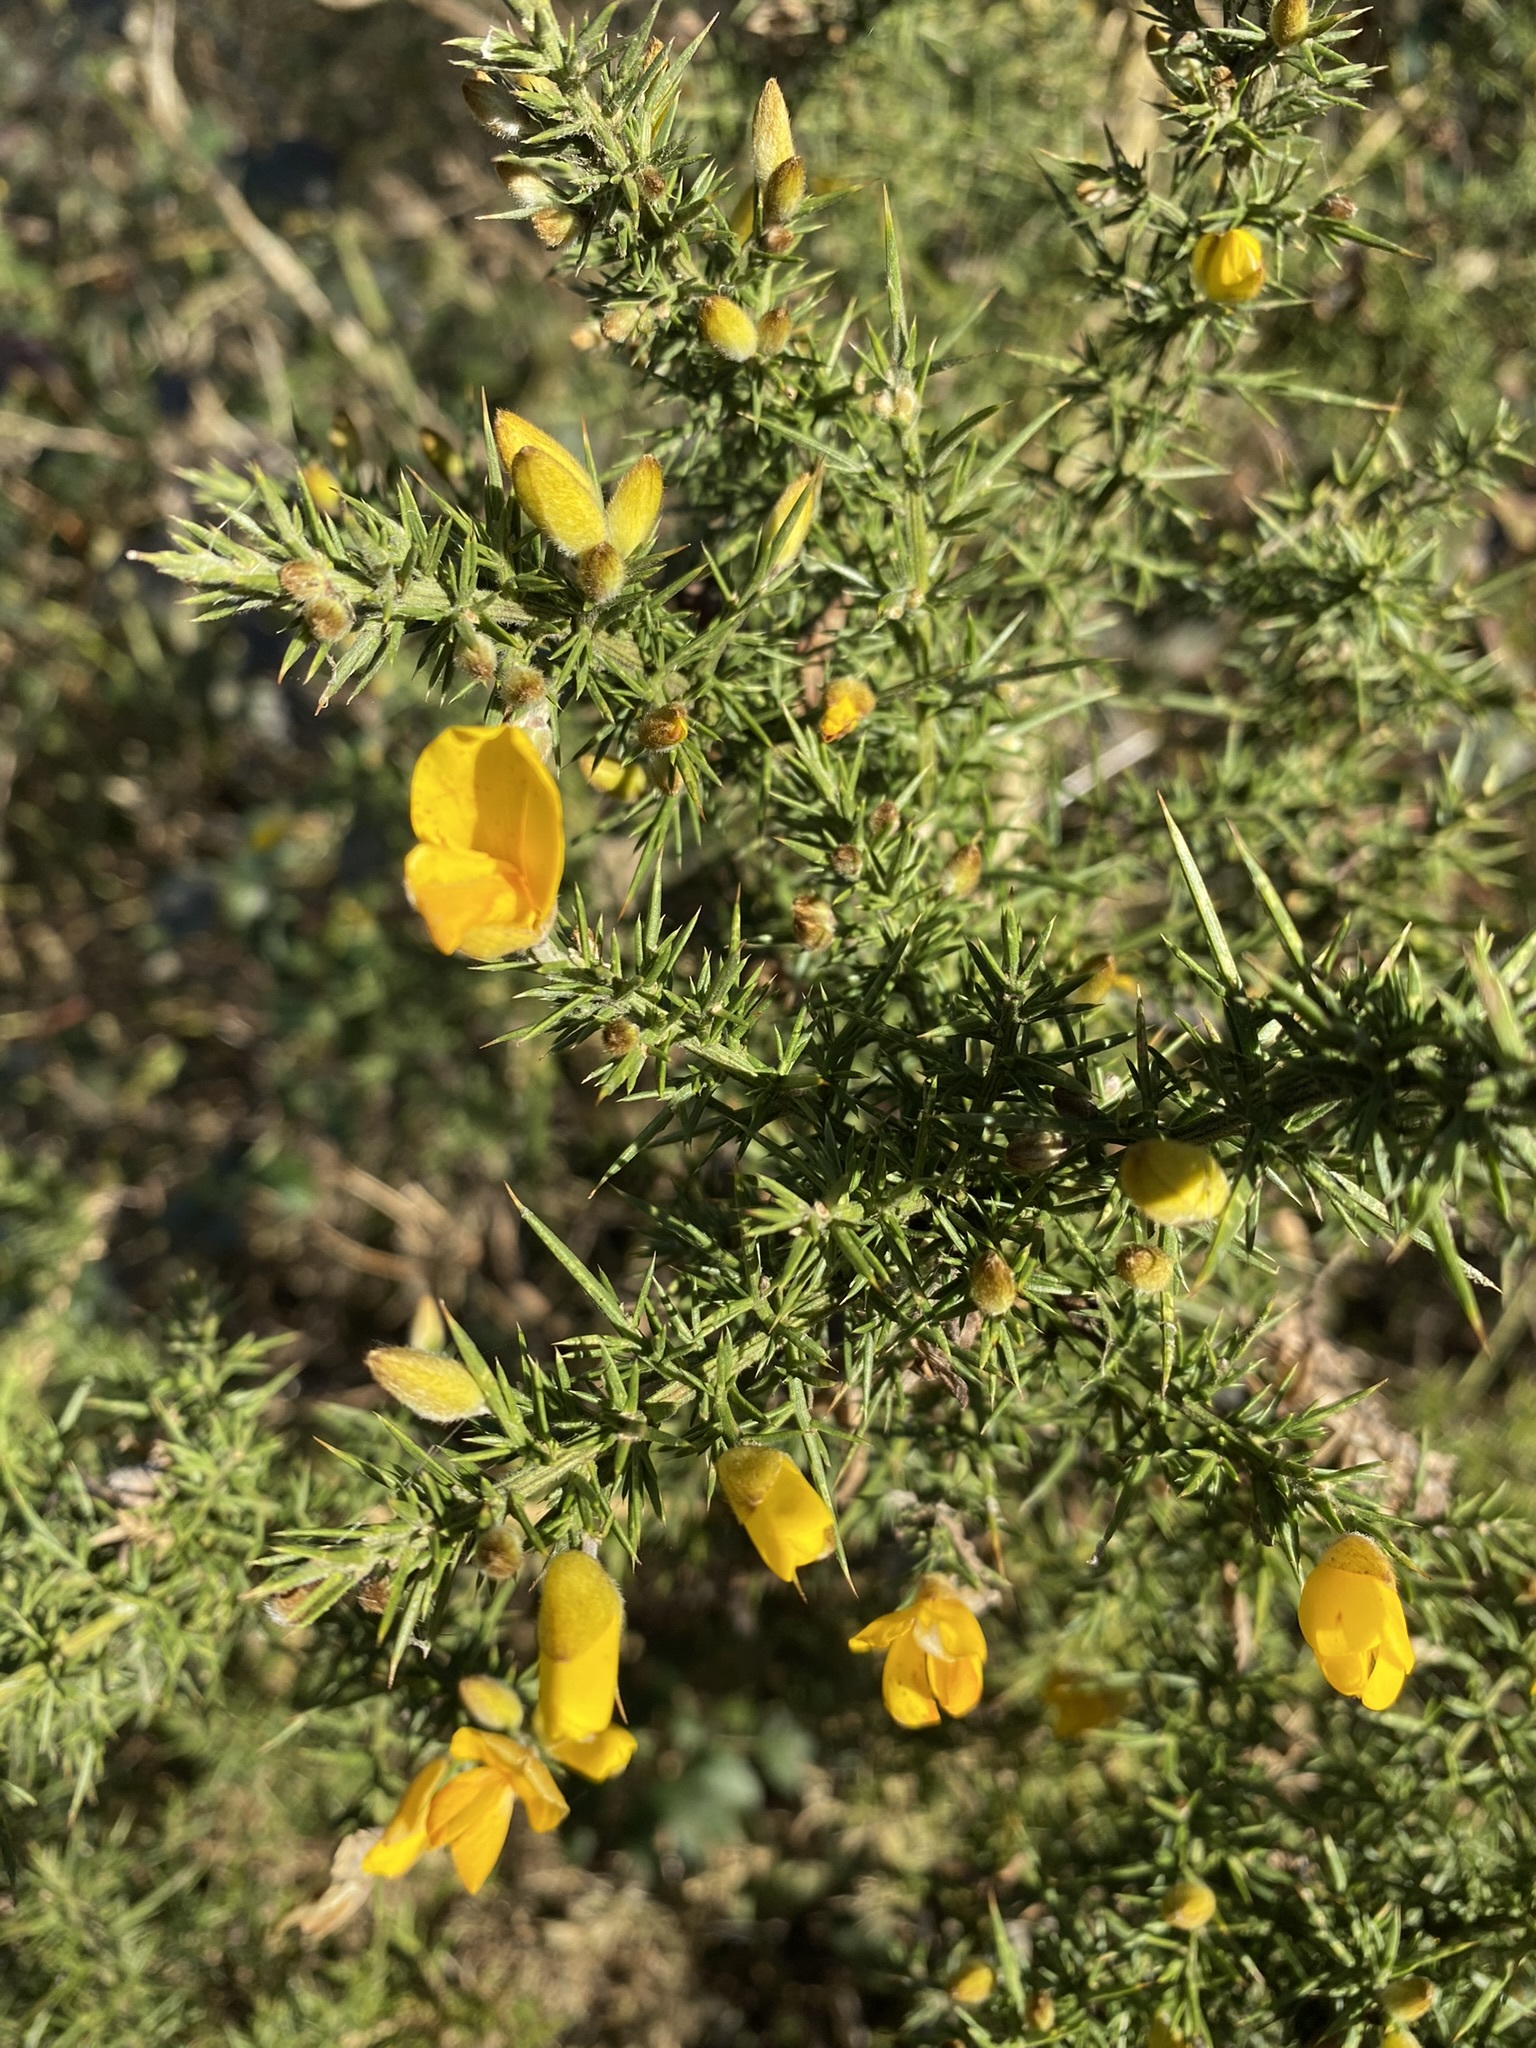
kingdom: Plantae
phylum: Tracheophyta
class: Magnoliopsida
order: Fabales
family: Fabaceae
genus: Ulex
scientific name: Ulex europaeus
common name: Common gorse
